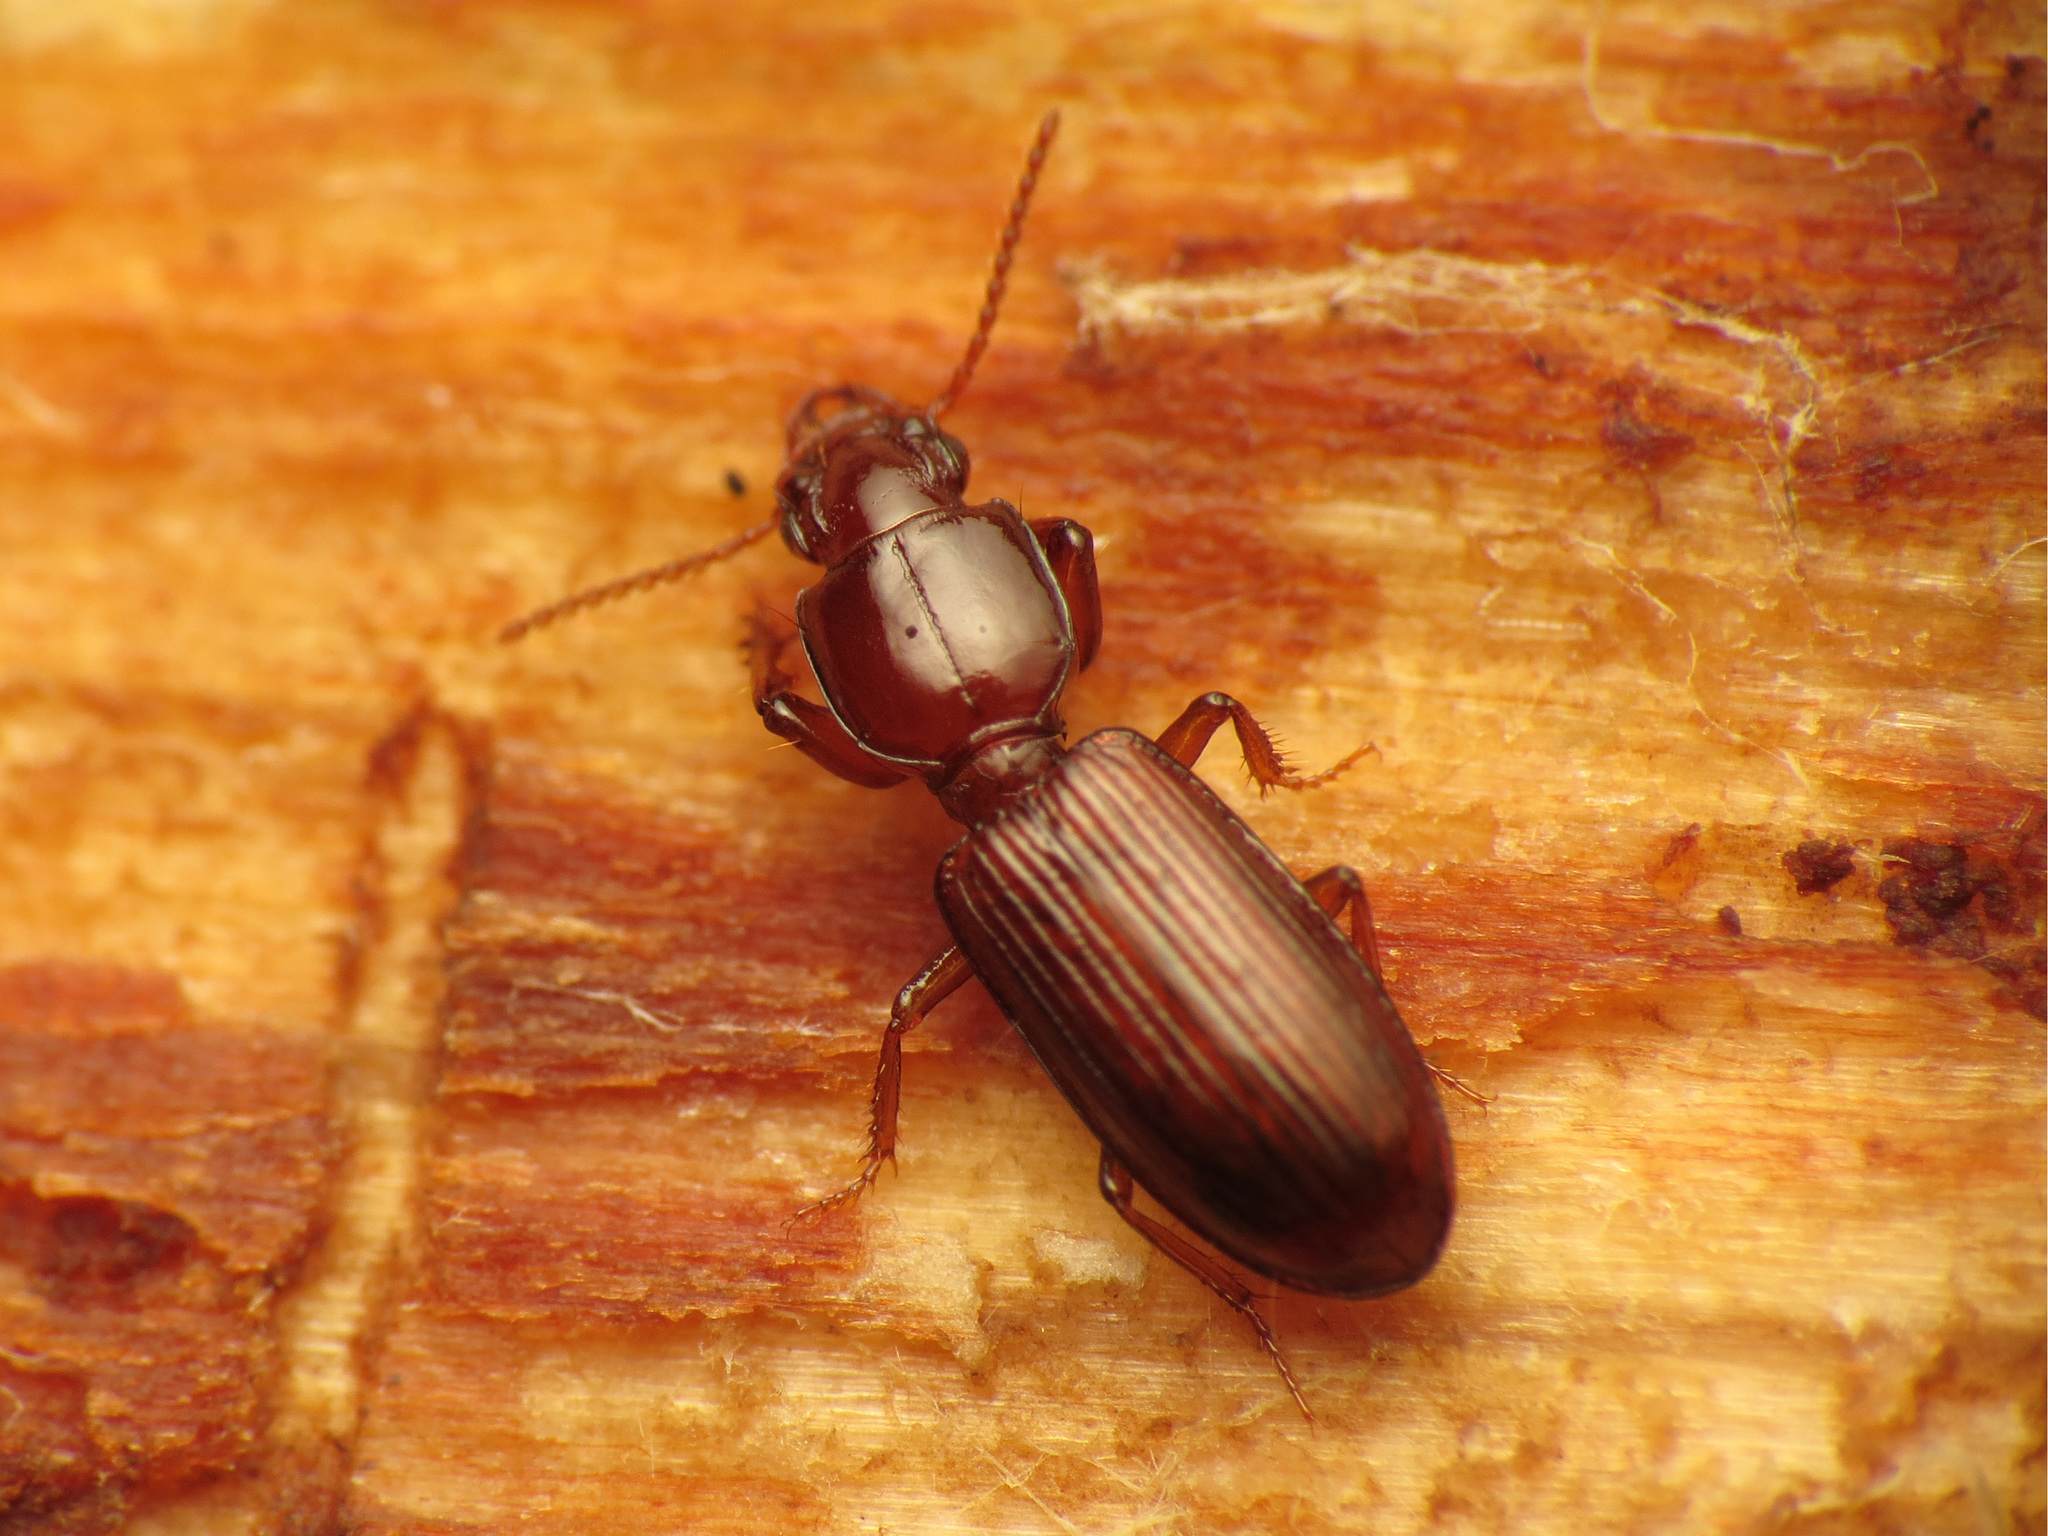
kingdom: Animalia
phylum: Arthropoda
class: Insecta
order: Coleoptera
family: Carabidae
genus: Clivina
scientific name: Clivina ferrea
